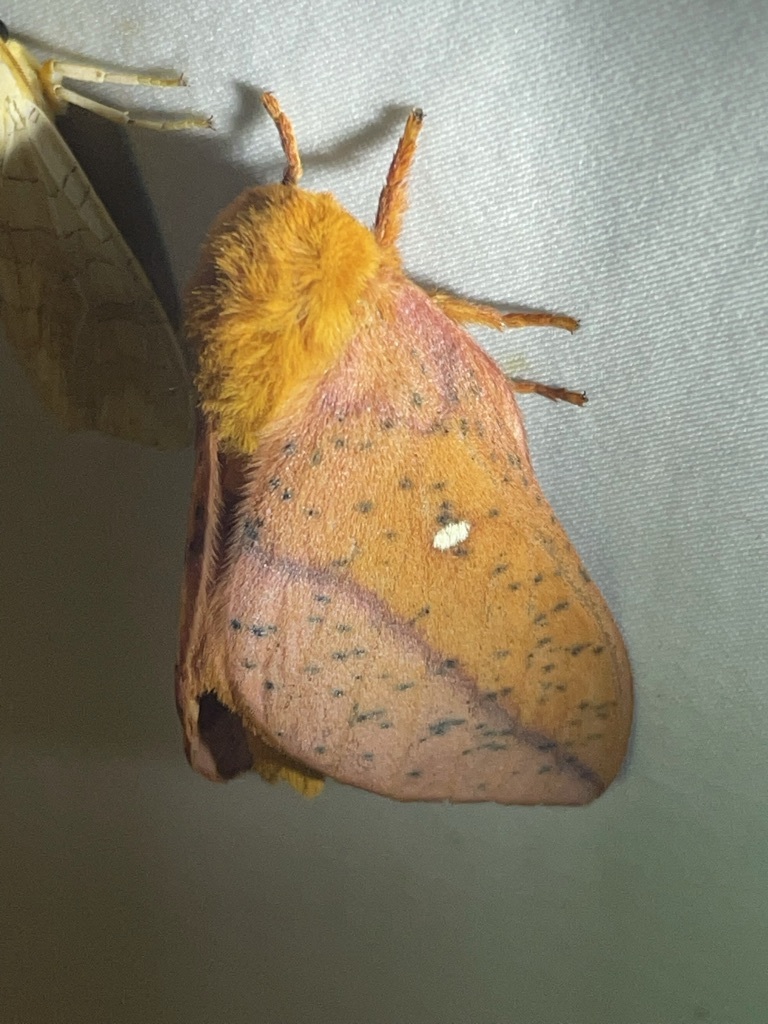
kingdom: Animalia
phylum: Arthropoda
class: Insecta
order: Lepidoptera
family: Saturniidae
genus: Anisota
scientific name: Anisota stigma
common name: Spiny oakworm moth
